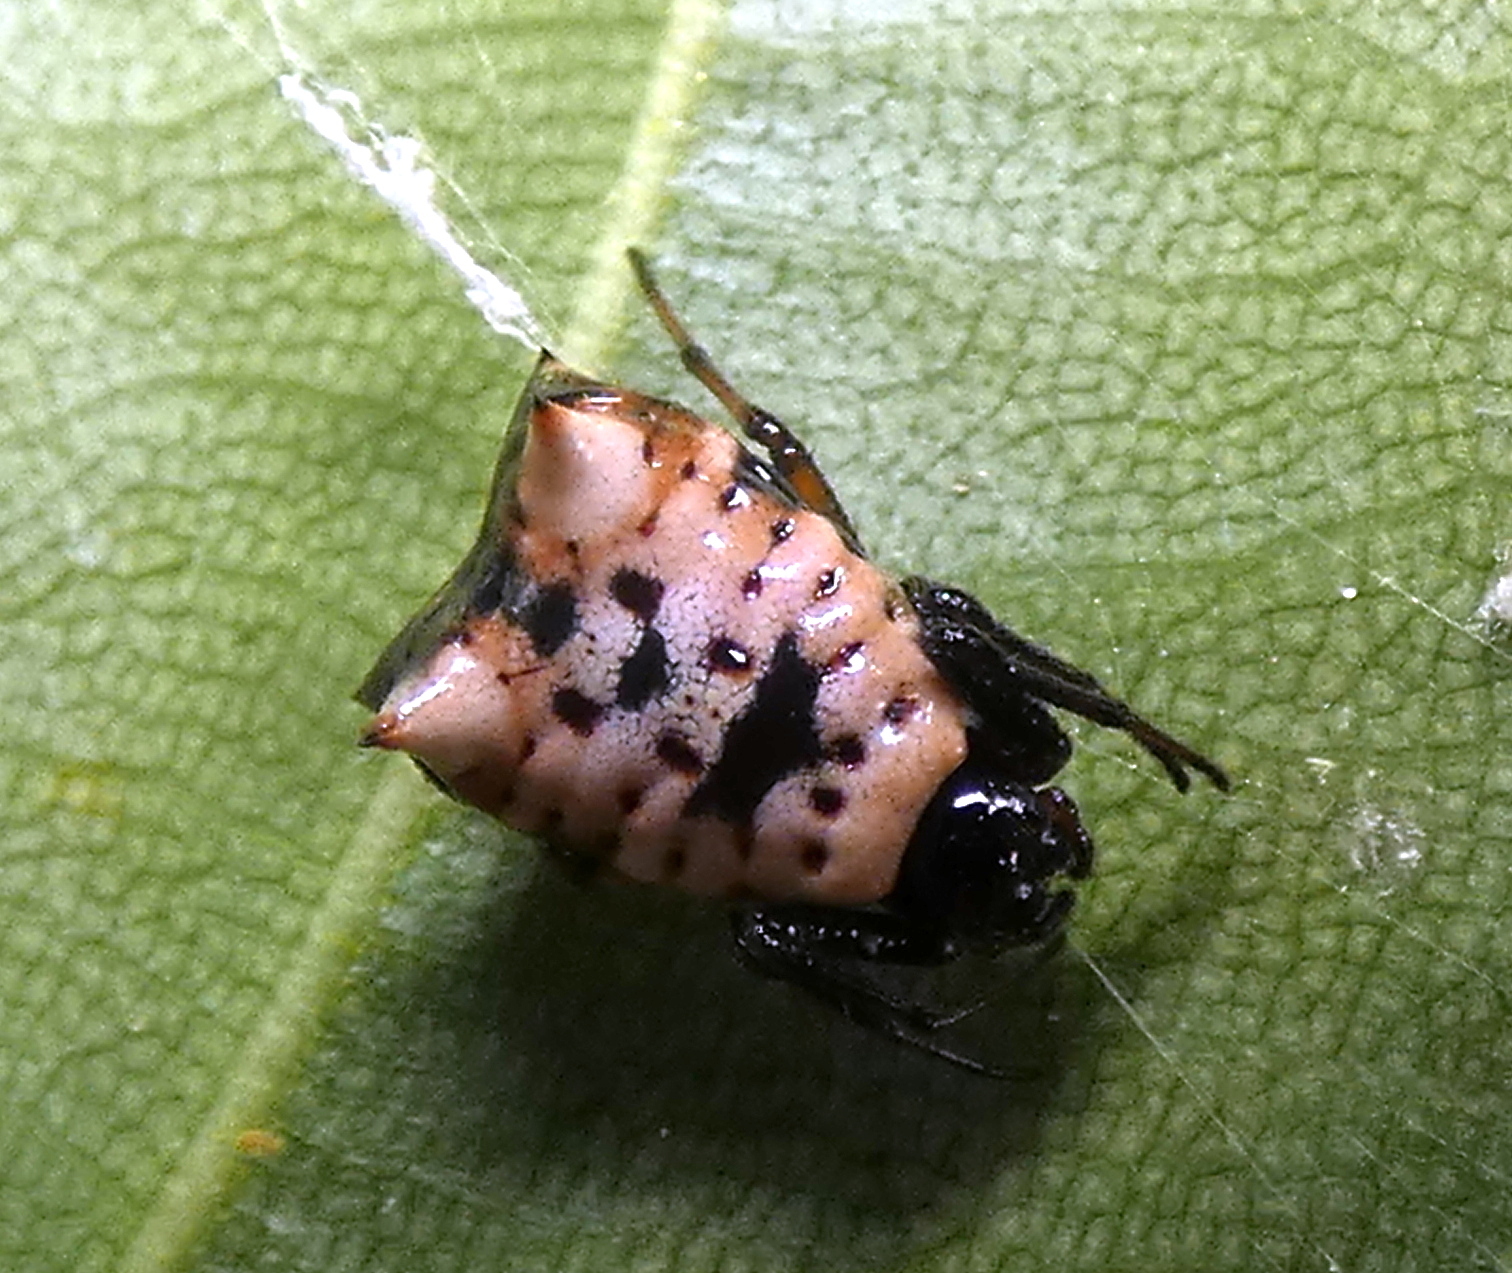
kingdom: Animalia
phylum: Arthropoda
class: Arachnida
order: Araneae
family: Araneidae
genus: Micrathena
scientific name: Micrathena patruelis
